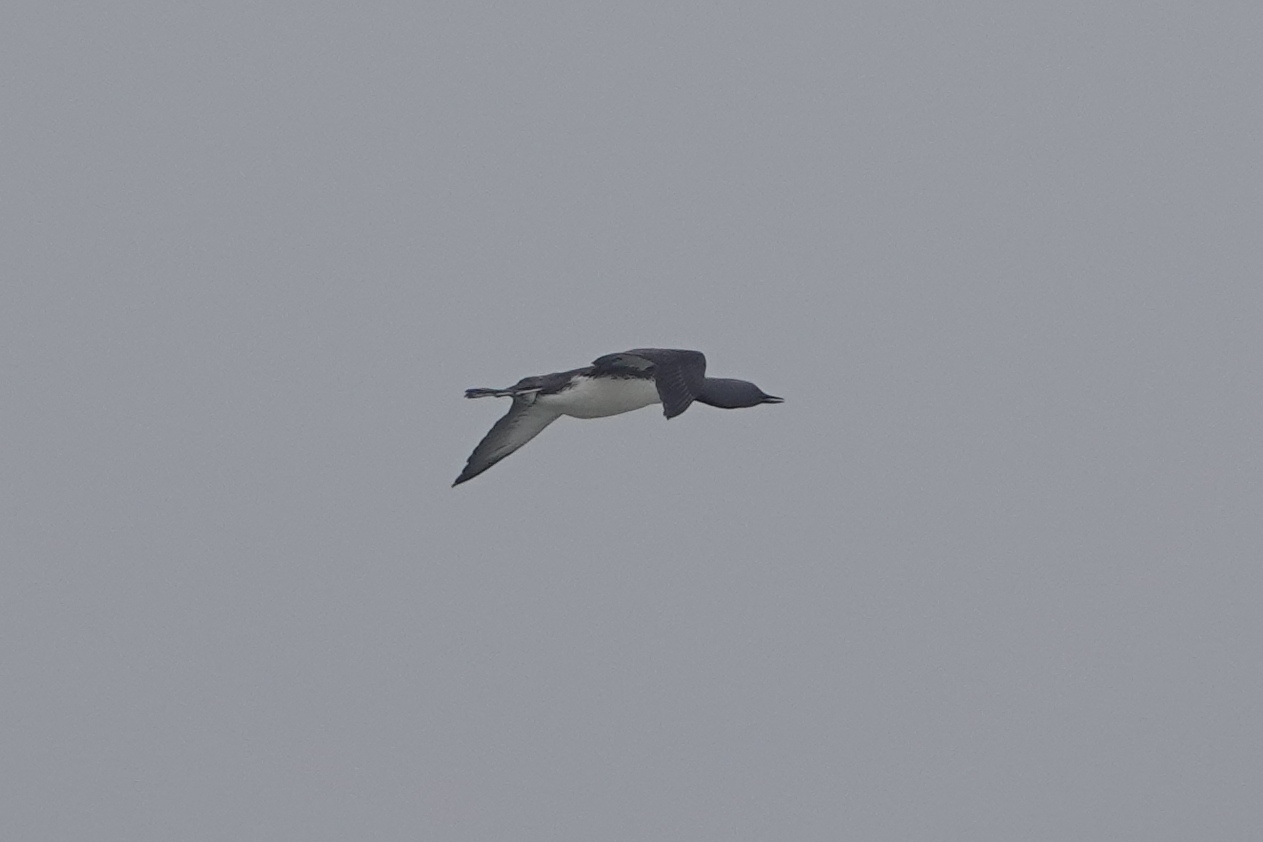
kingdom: Animalia
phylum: Chordata
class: Aves
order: Gaviiformes
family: Gaviidae
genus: Gavia
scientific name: Gavia stellata
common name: Red-throated loon
